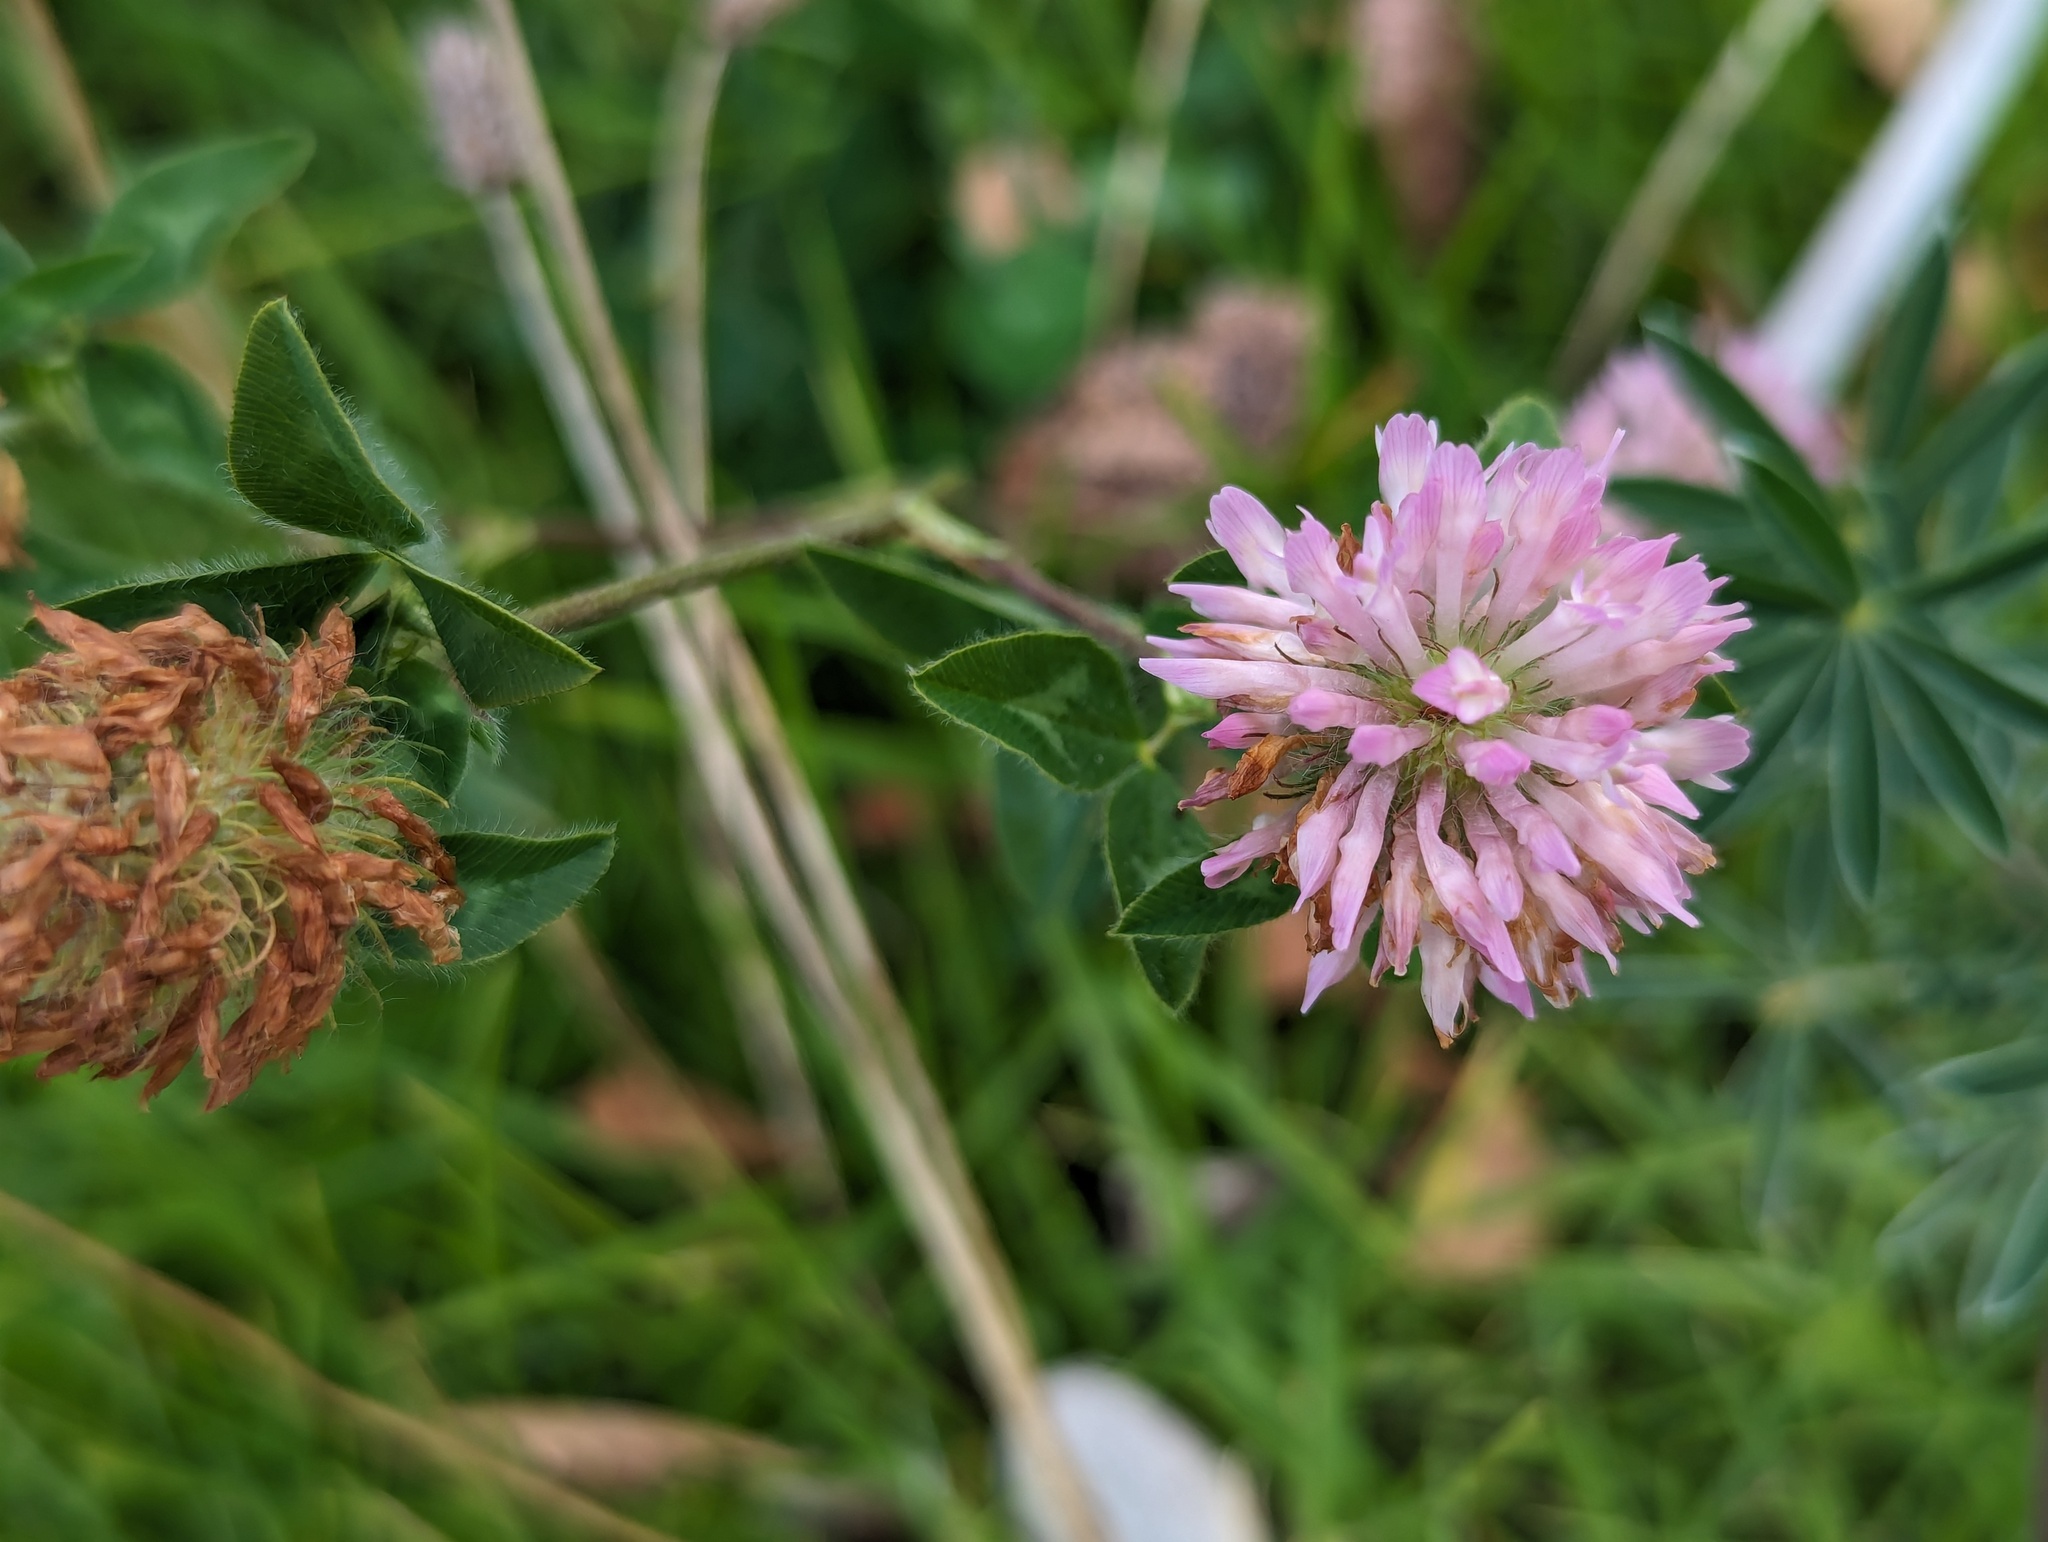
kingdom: Plantae
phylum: Tracheophyta
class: Magnoliopsida
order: Fabales
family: Fabaceae
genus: Trifolium
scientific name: Trifolium pratense
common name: Red clover
